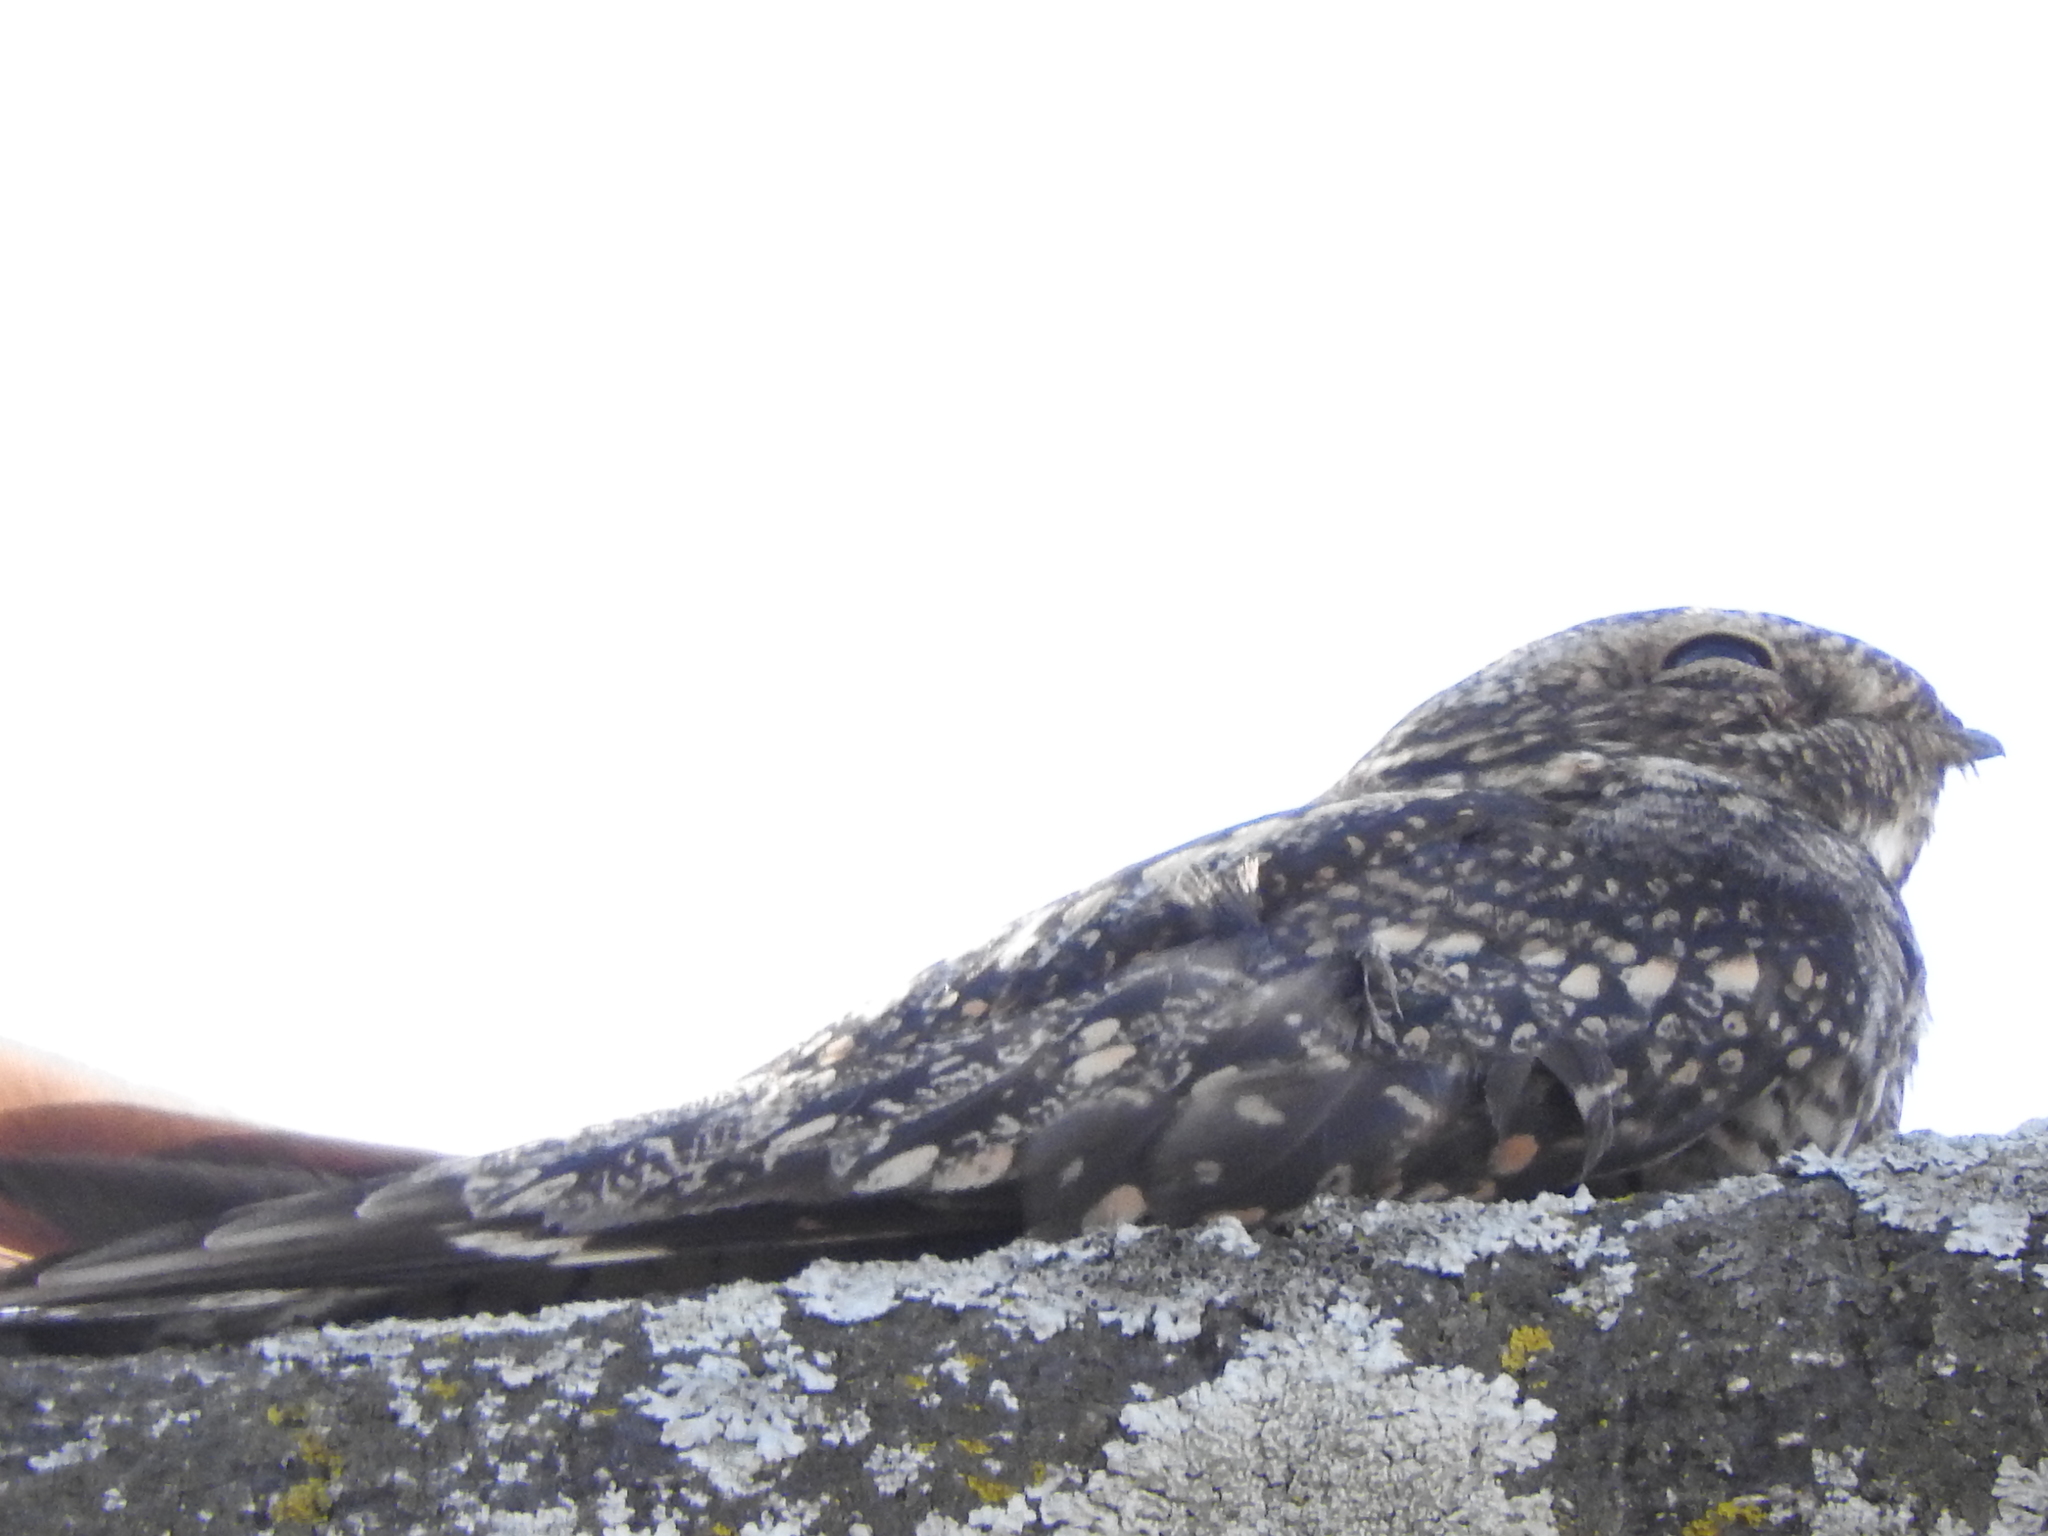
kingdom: Animalia
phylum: Chordata
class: Aves
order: Caprimulgiformes
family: Caprimulgidae
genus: Chordeiles
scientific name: Chordeiles acutipennis
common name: Lesser nighthawk
